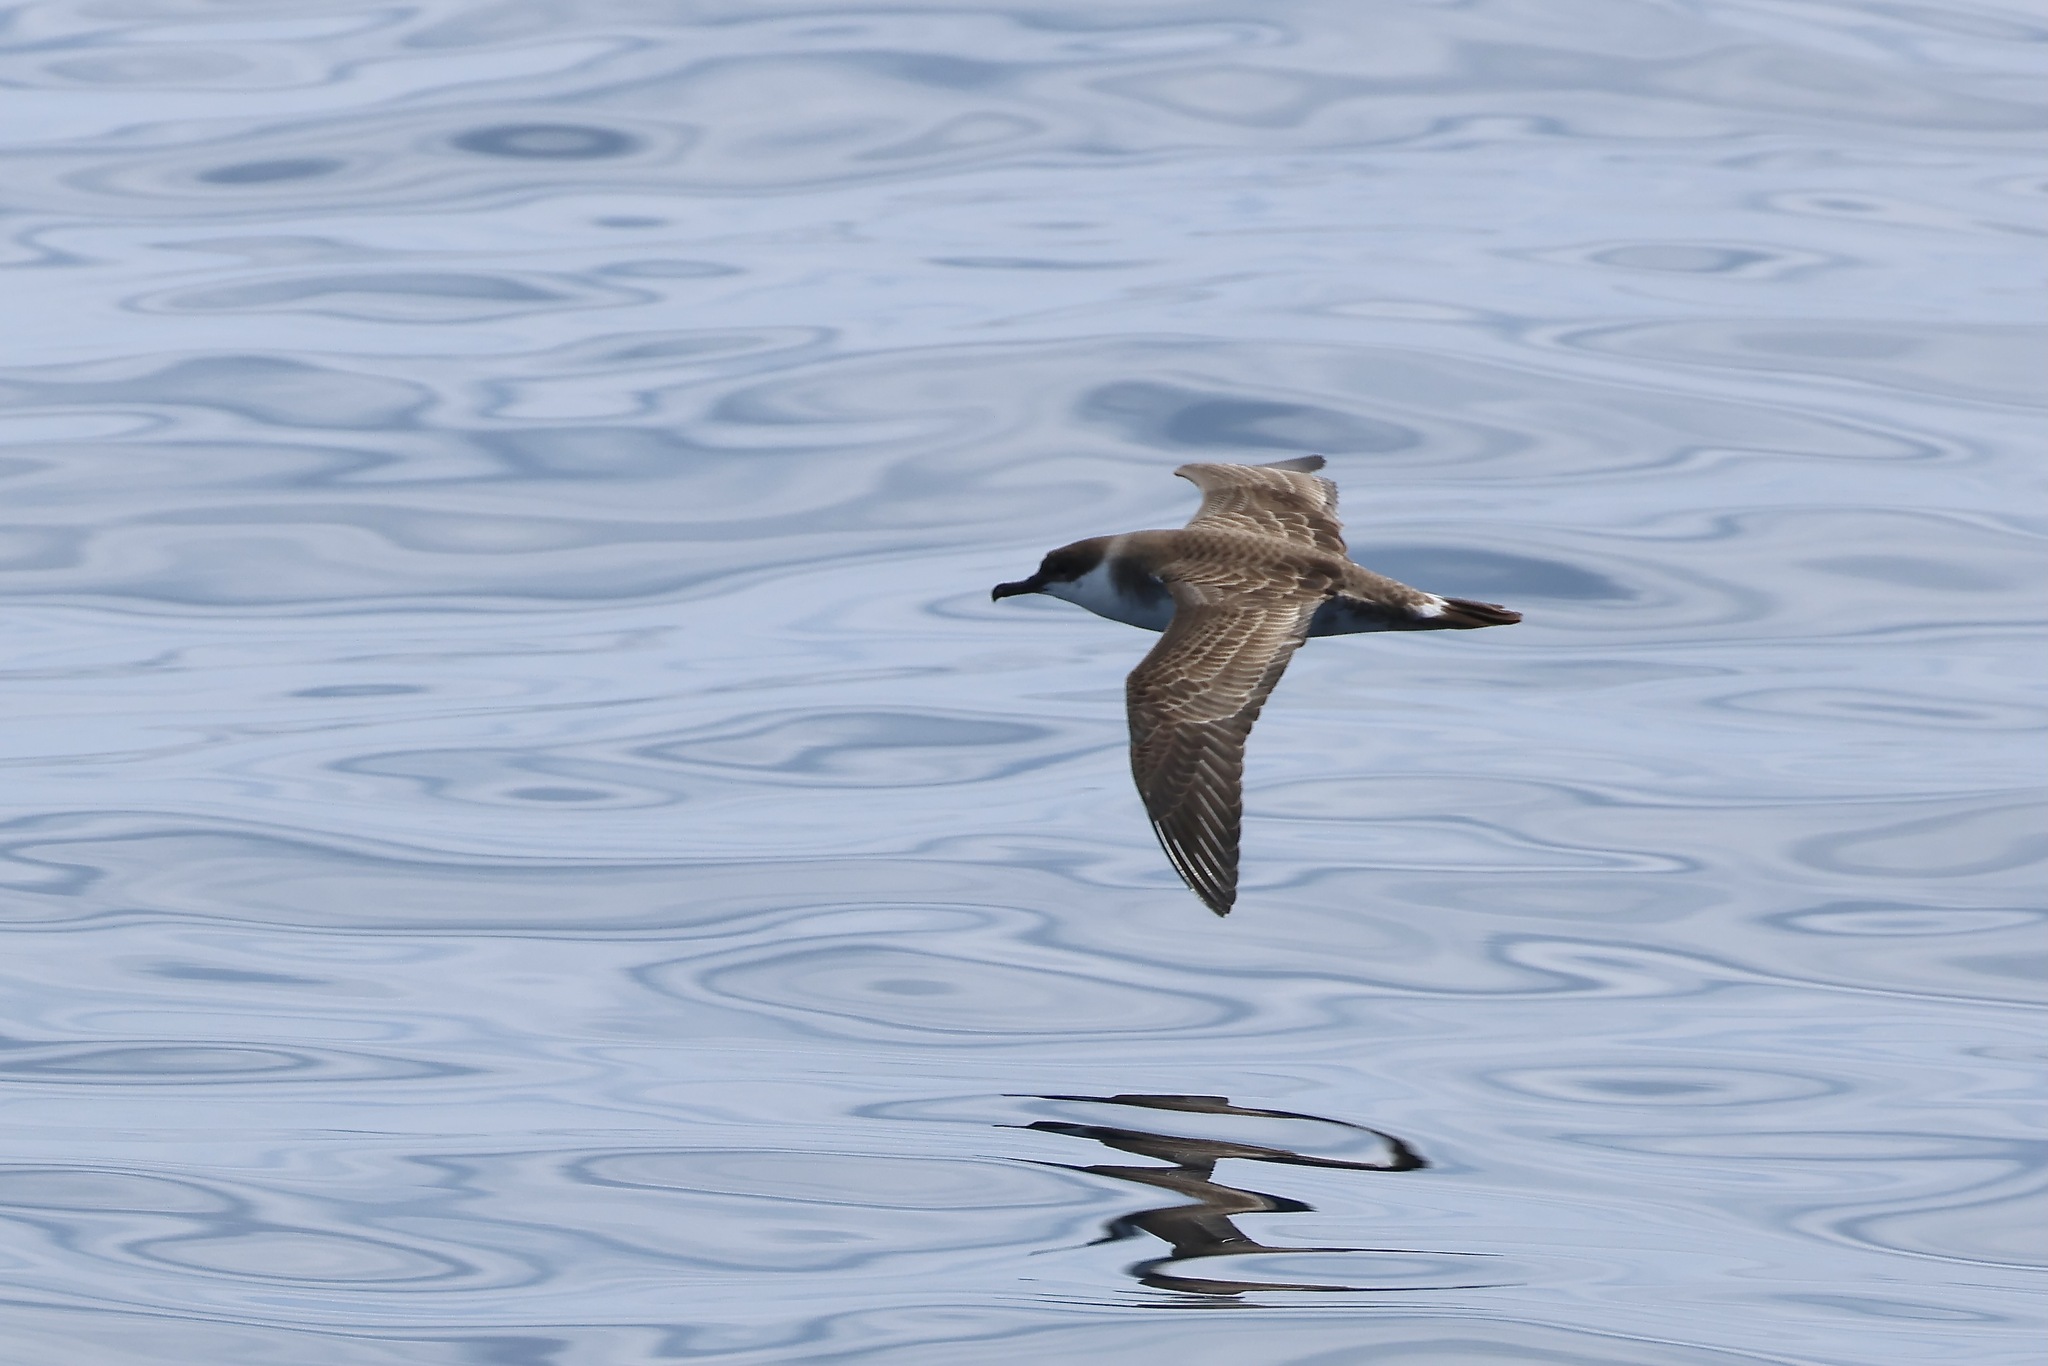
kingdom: Animalia
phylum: Chordata
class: Aves
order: Procellariiformes
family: Procellariidae
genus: Puffinus
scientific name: Puffinus gravis
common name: Great shearwater
